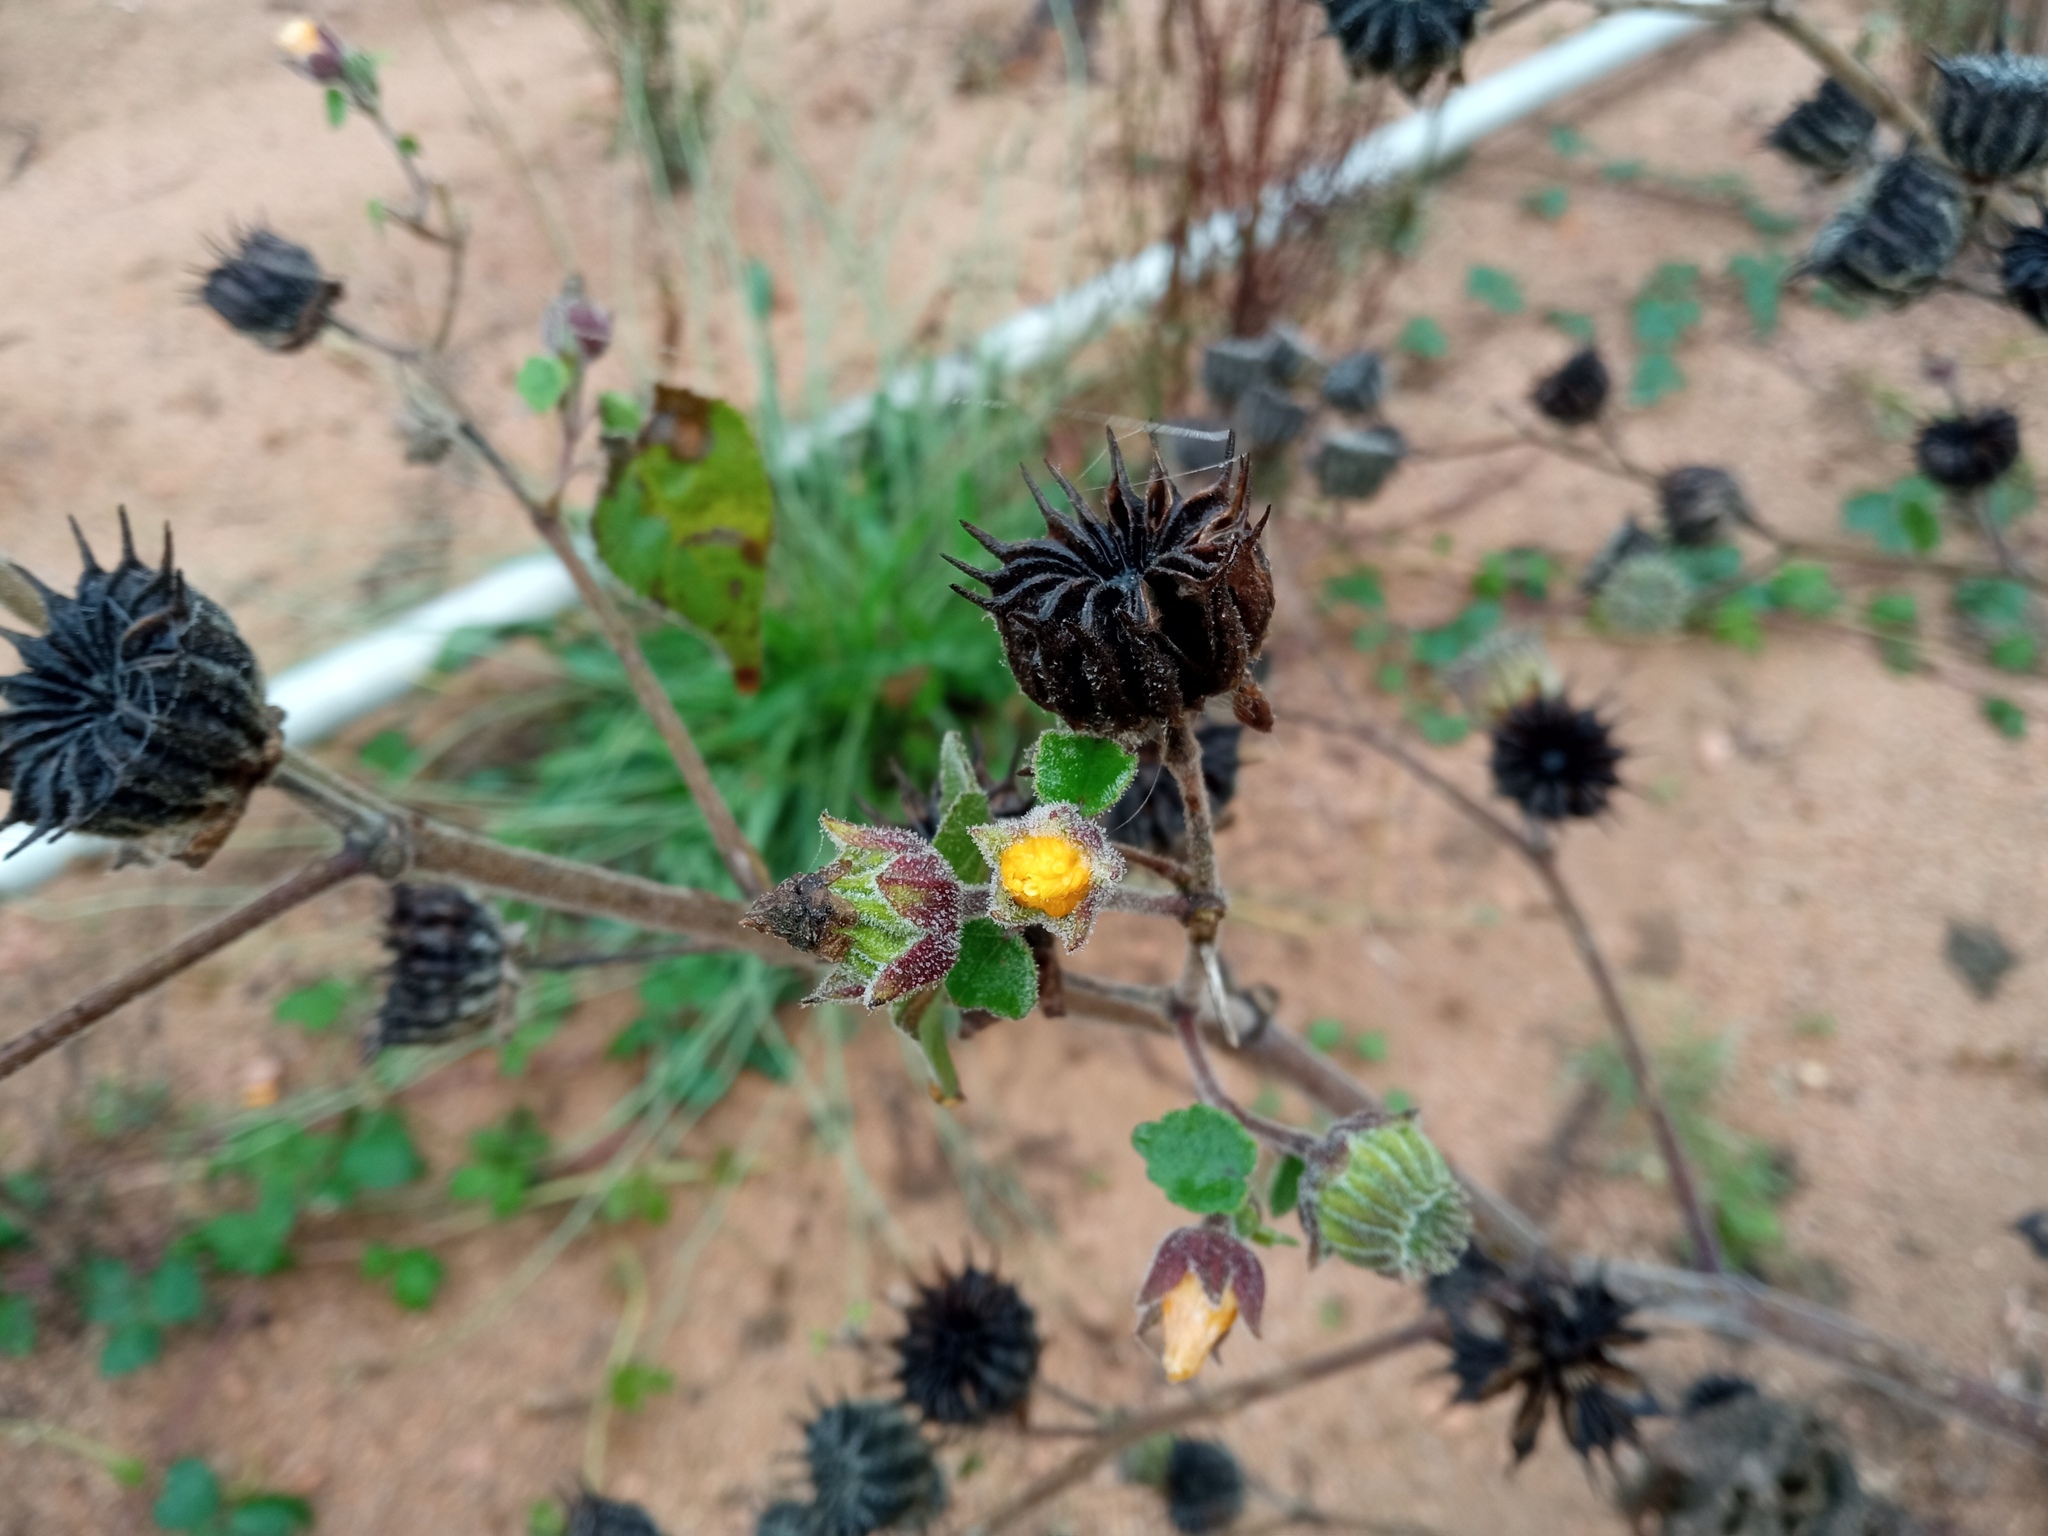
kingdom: Plantae
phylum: Tracheophyta
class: Magnoliopsida
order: Malvales
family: Malvaceae
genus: Abutilon
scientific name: Abutilon theophrasti
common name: Velvetleaf
